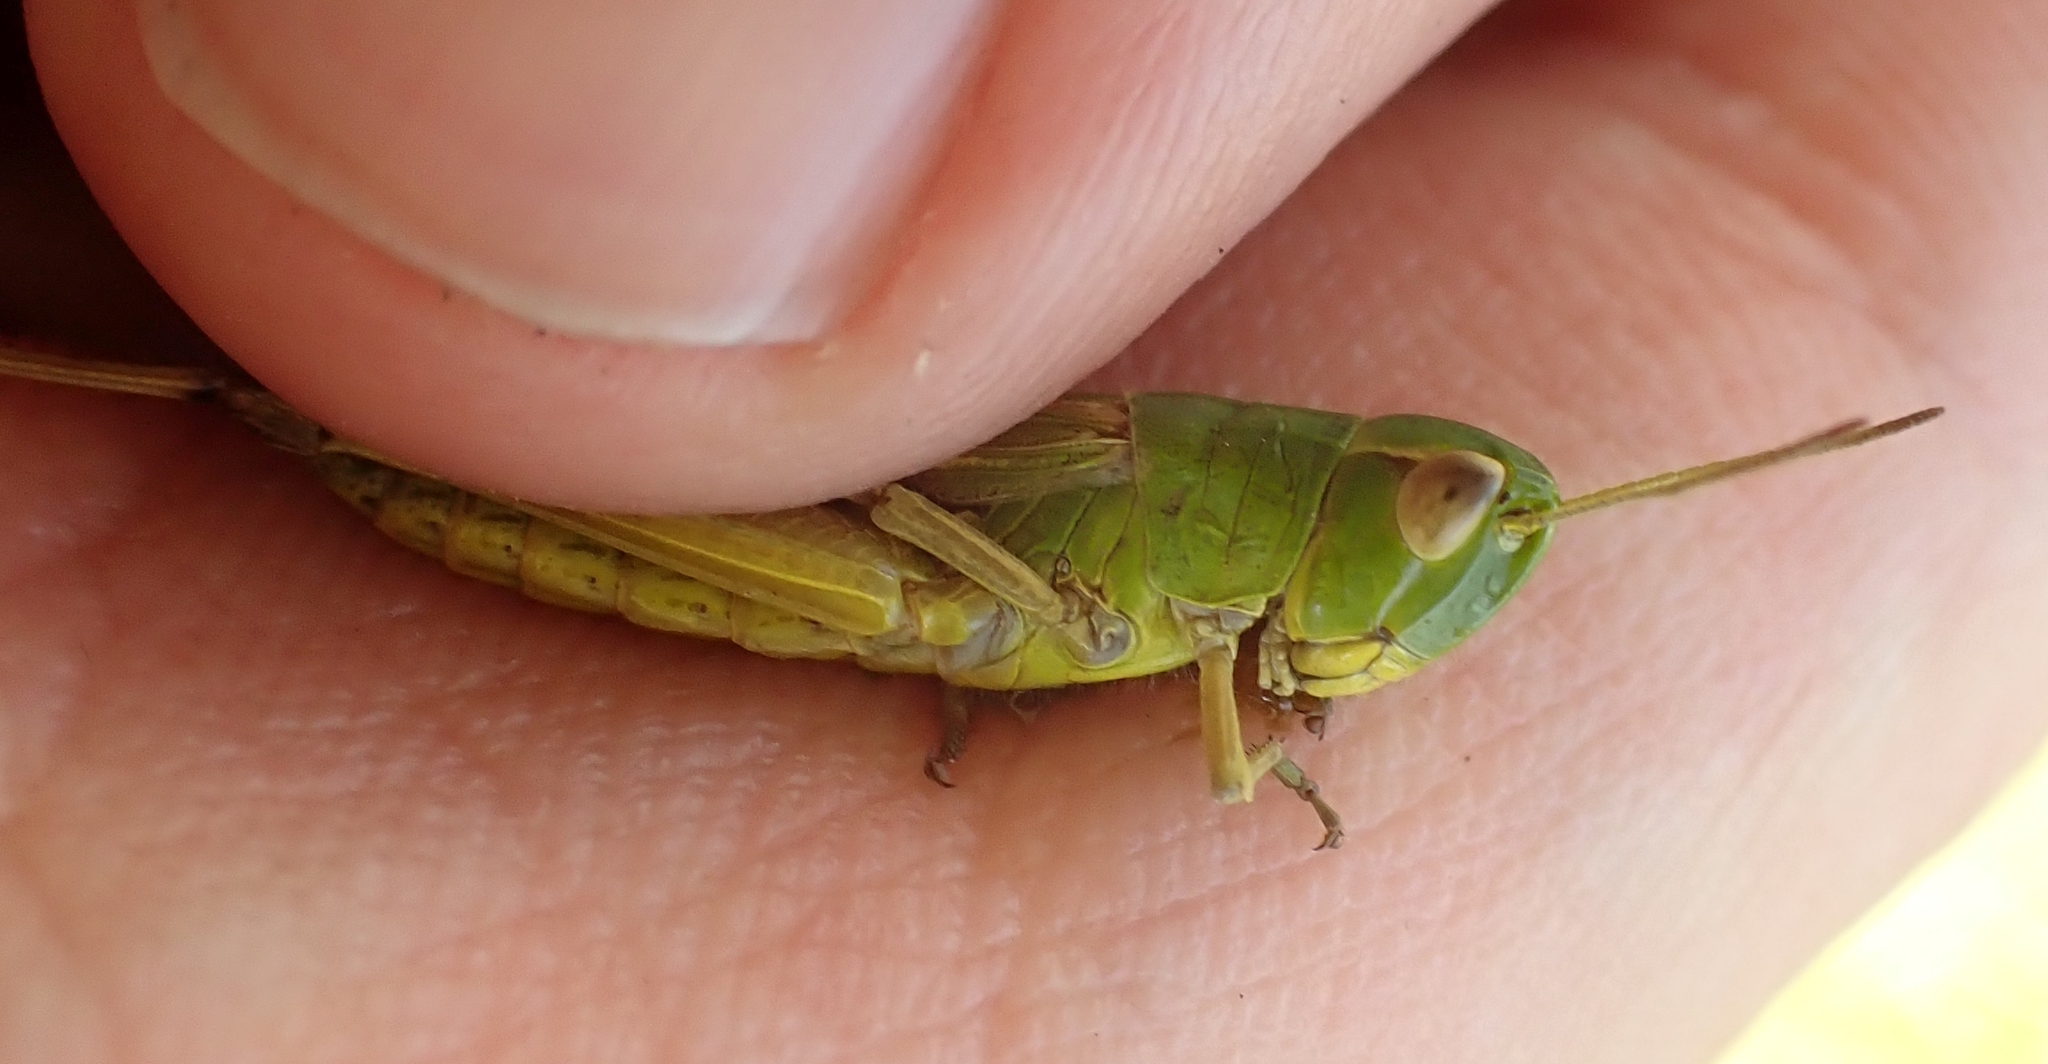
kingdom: Animalia
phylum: Arthropoda
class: Insecta
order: Orthoptera
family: Acrididae
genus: Pseudochorthippus
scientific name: Pseudochorthippus parallelus
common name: Meadow grasshopper
